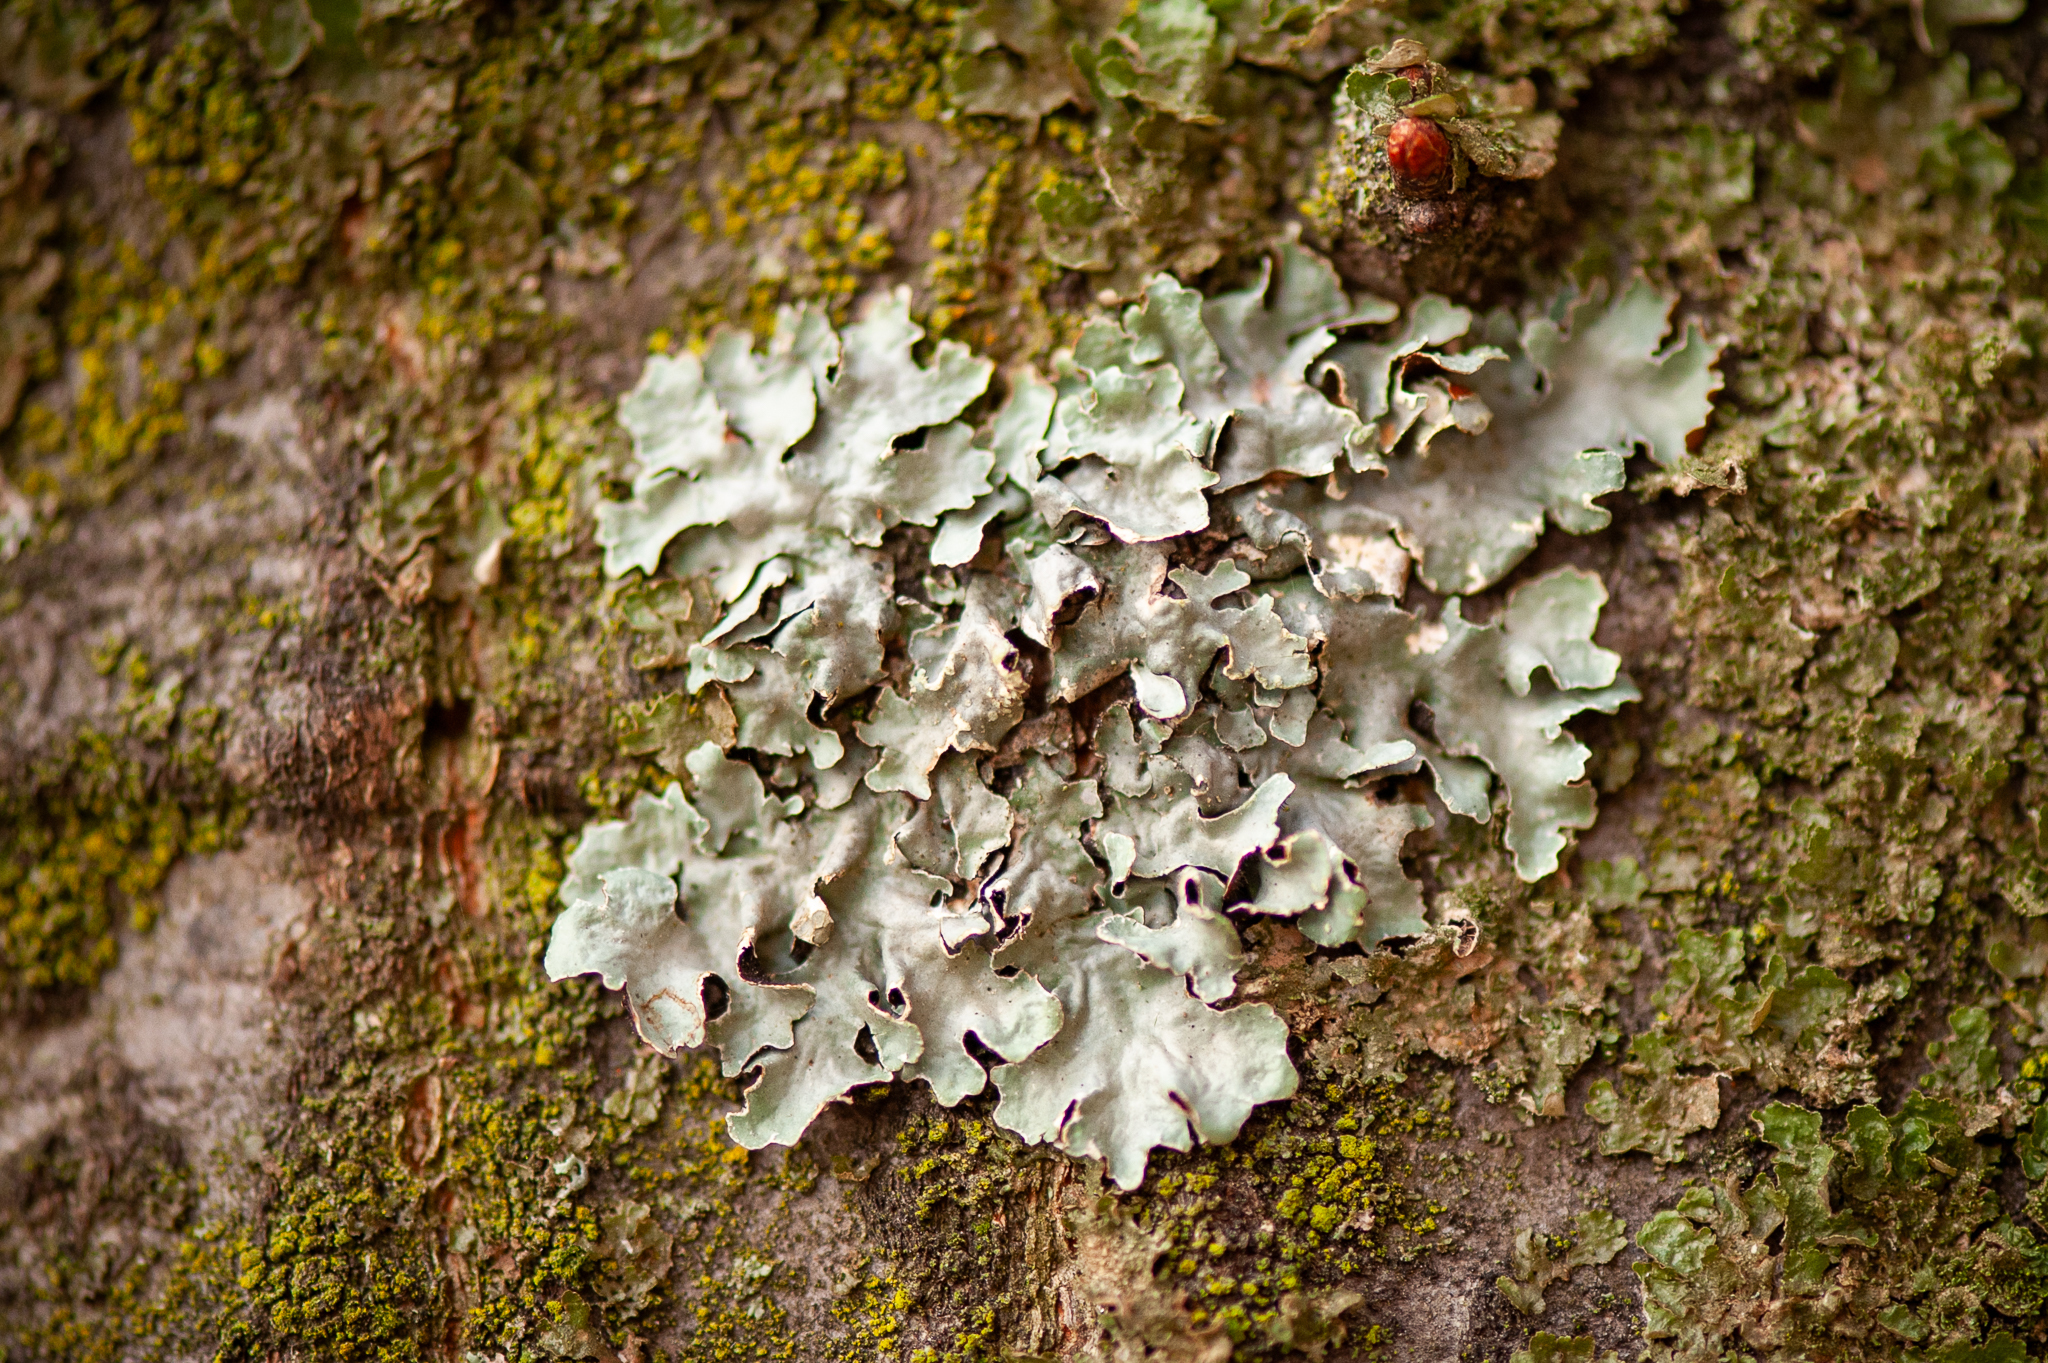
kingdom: Fungi
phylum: Ascomycota
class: Lecanoromycetes
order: Lecanorales
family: Parmeliaceae
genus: Parmelia
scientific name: Parmelia sulcata
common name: Netted shield lichen
